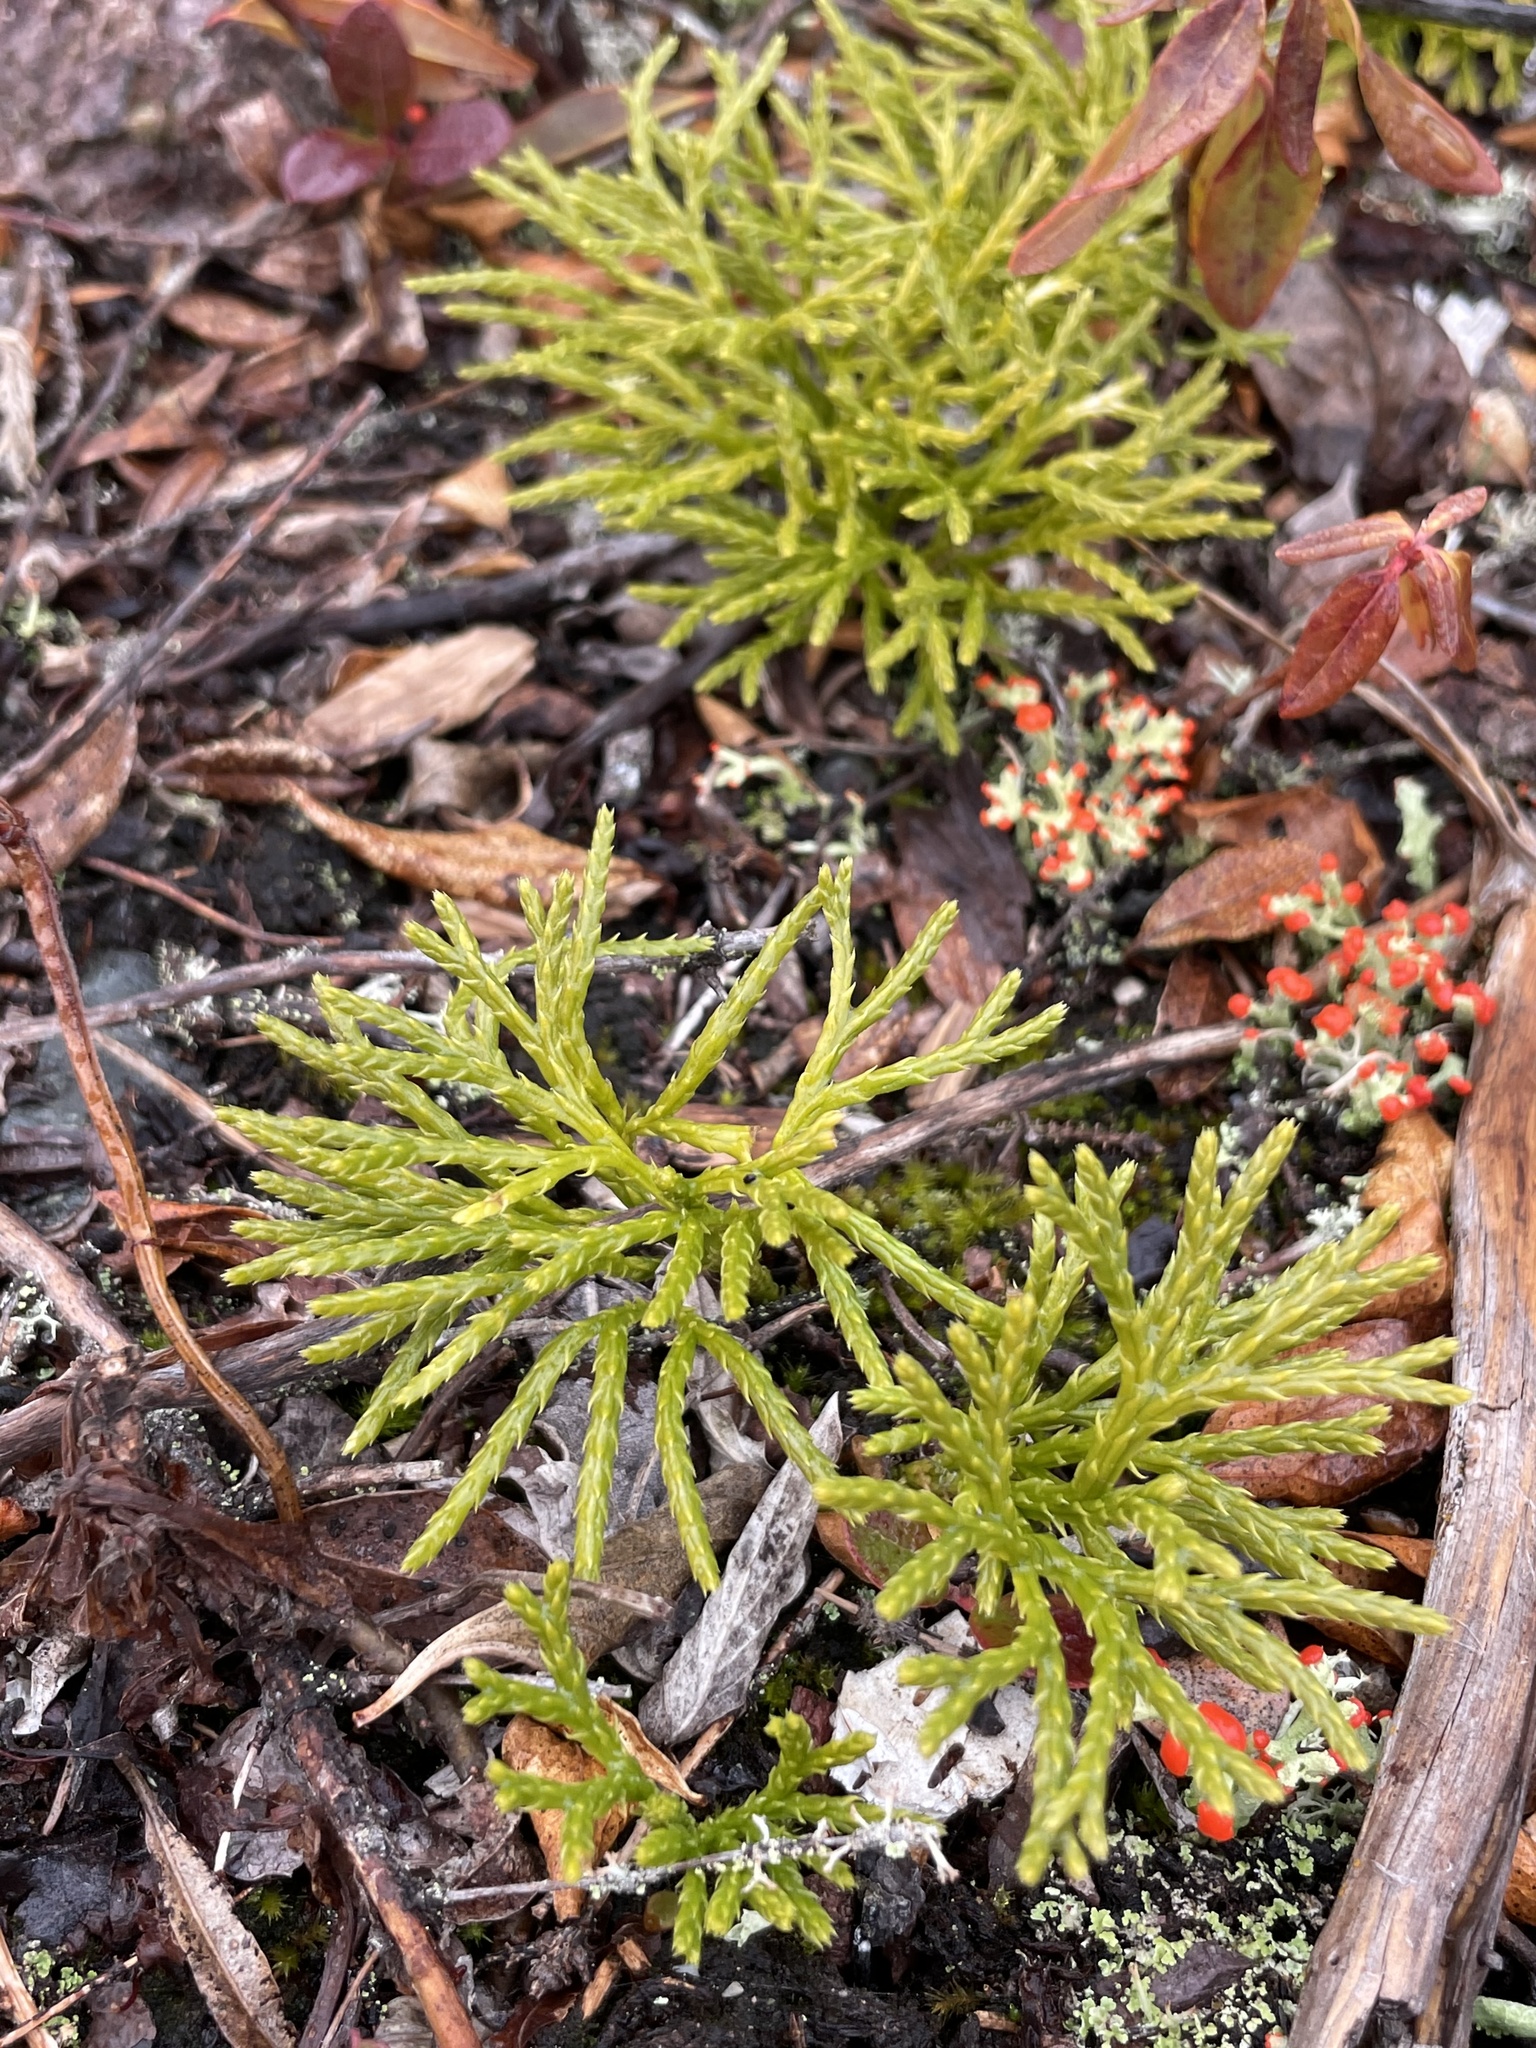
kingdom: Plantae
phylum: Tracheophyta
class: Lycopodiopsida
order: Lycopodiales
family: Lycopodiaceae
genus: Diphasiastrum
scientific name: Diphasiastrum digitatum
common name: Southern running-pine
